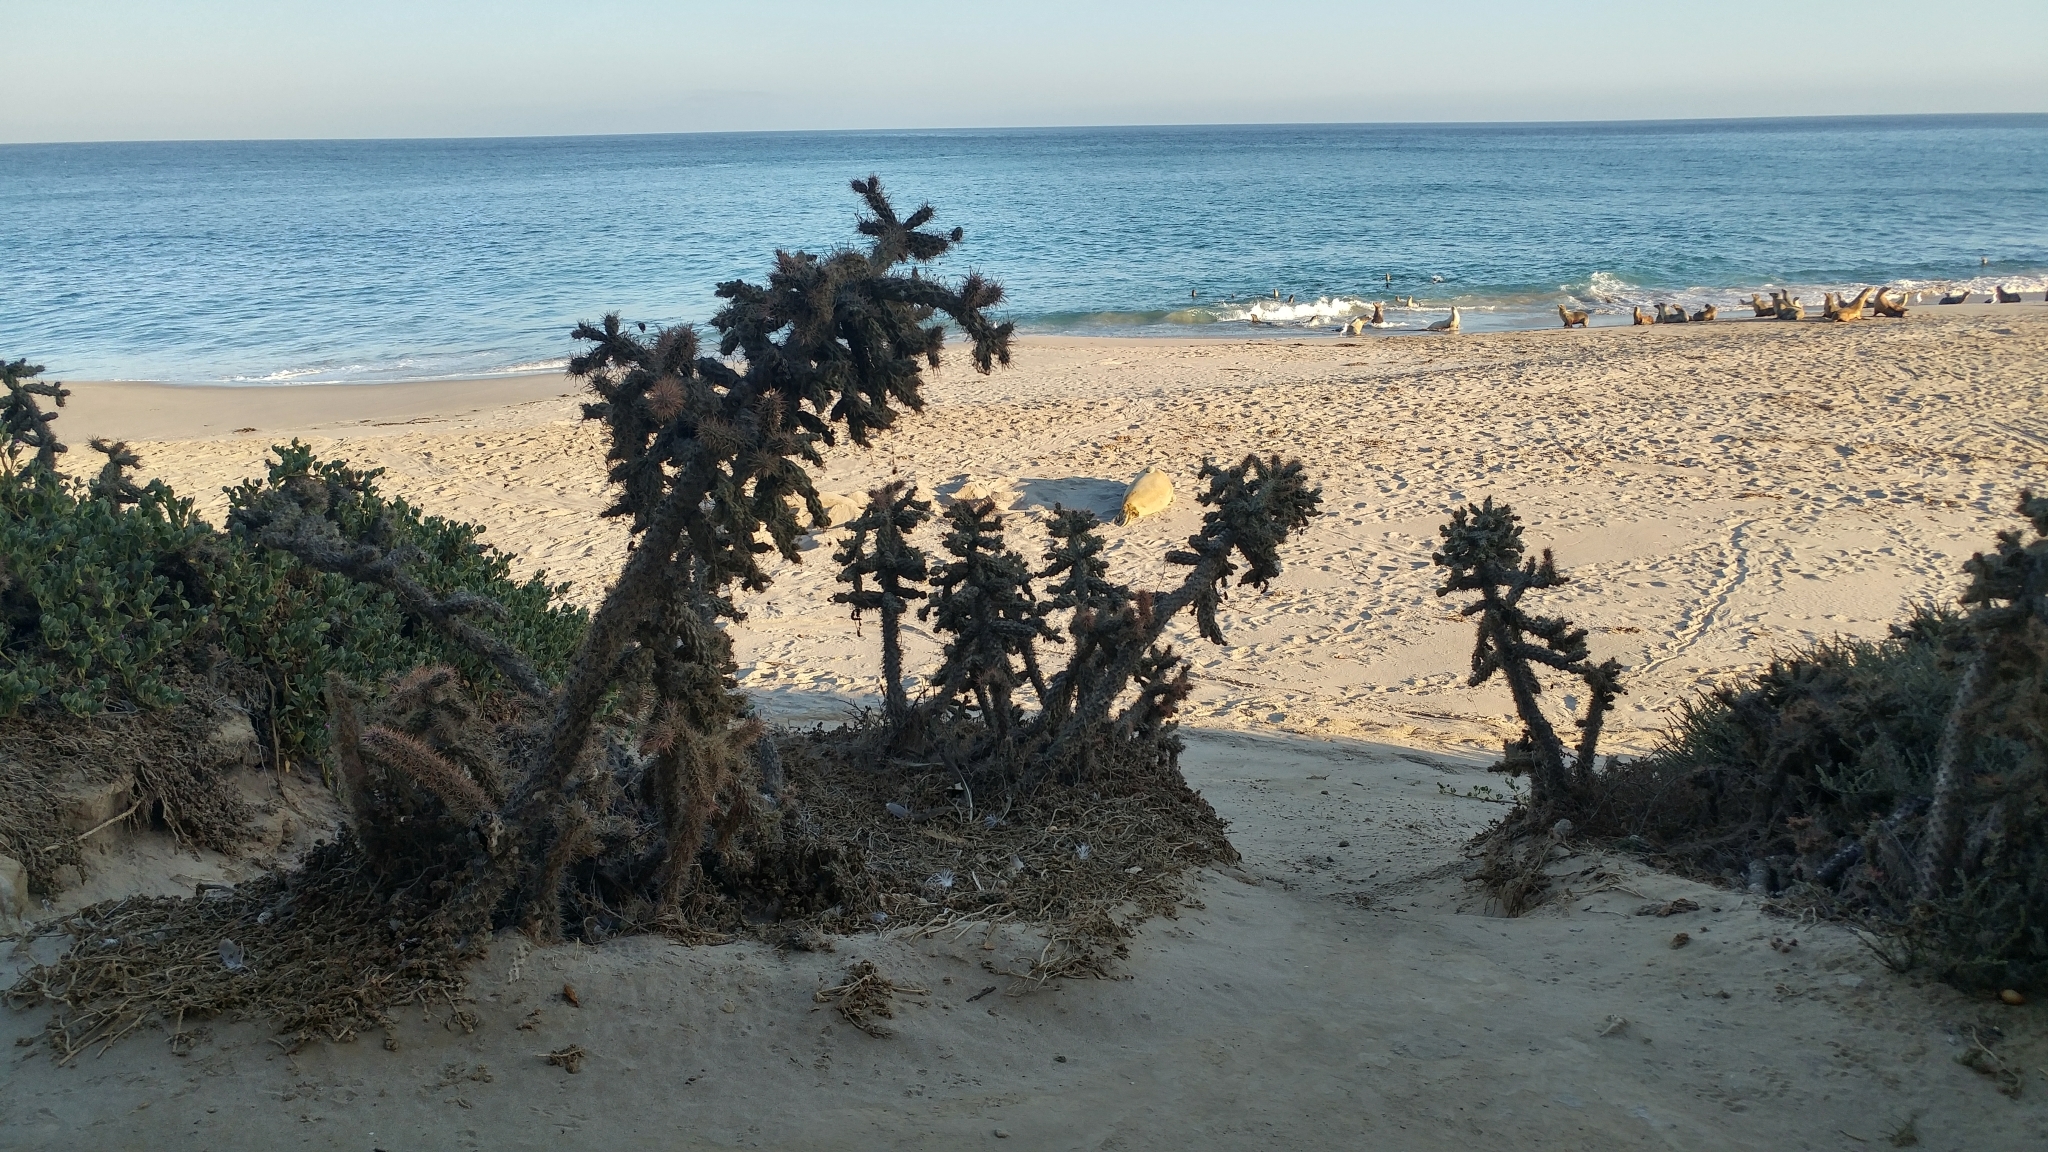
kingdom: Plantae
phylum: Tracheophyta
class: Magnoliopsida
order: Caryophyllales
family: Cactaceae
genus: Cylindropuntia
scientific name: Cylindropuntia prolifera
